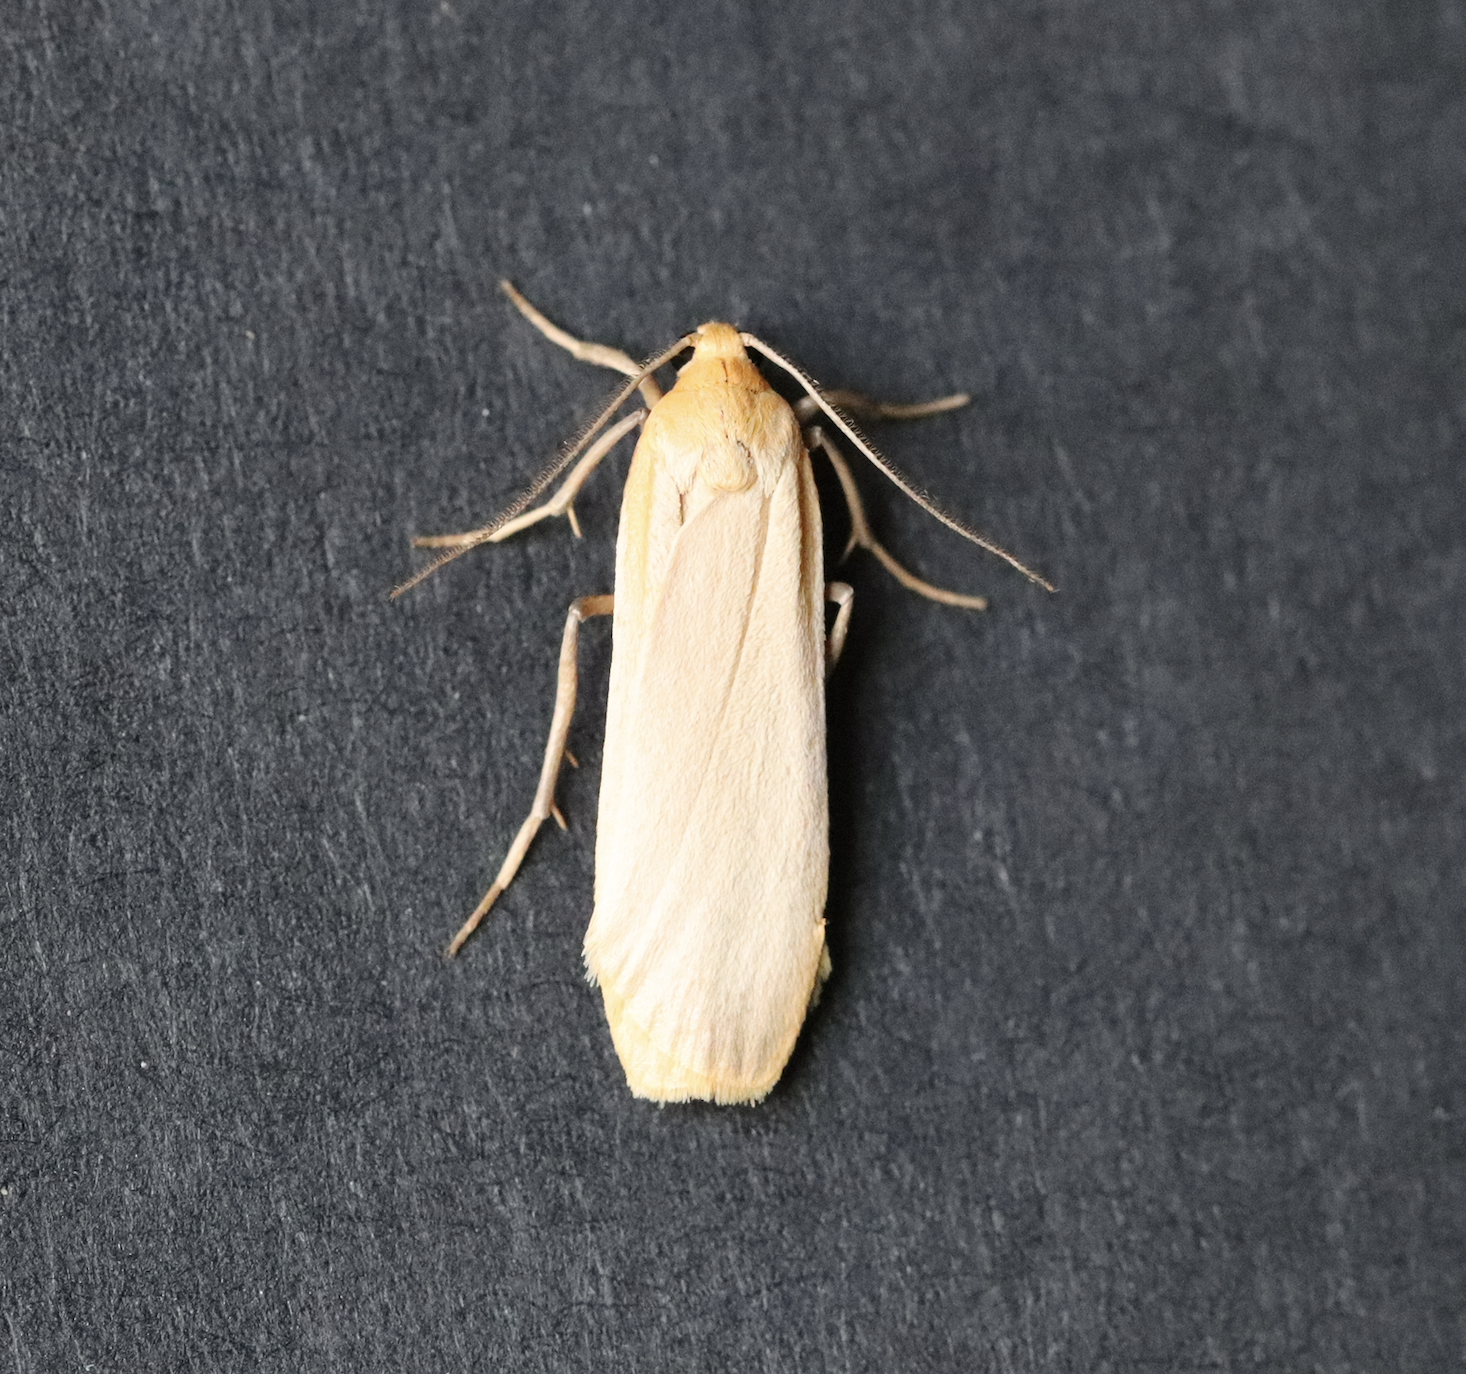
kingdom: Animalia
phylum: Arthropoda
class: Insecta
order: Lepidoptera
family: Erebidae
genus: Katha
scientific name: Katha depressa
